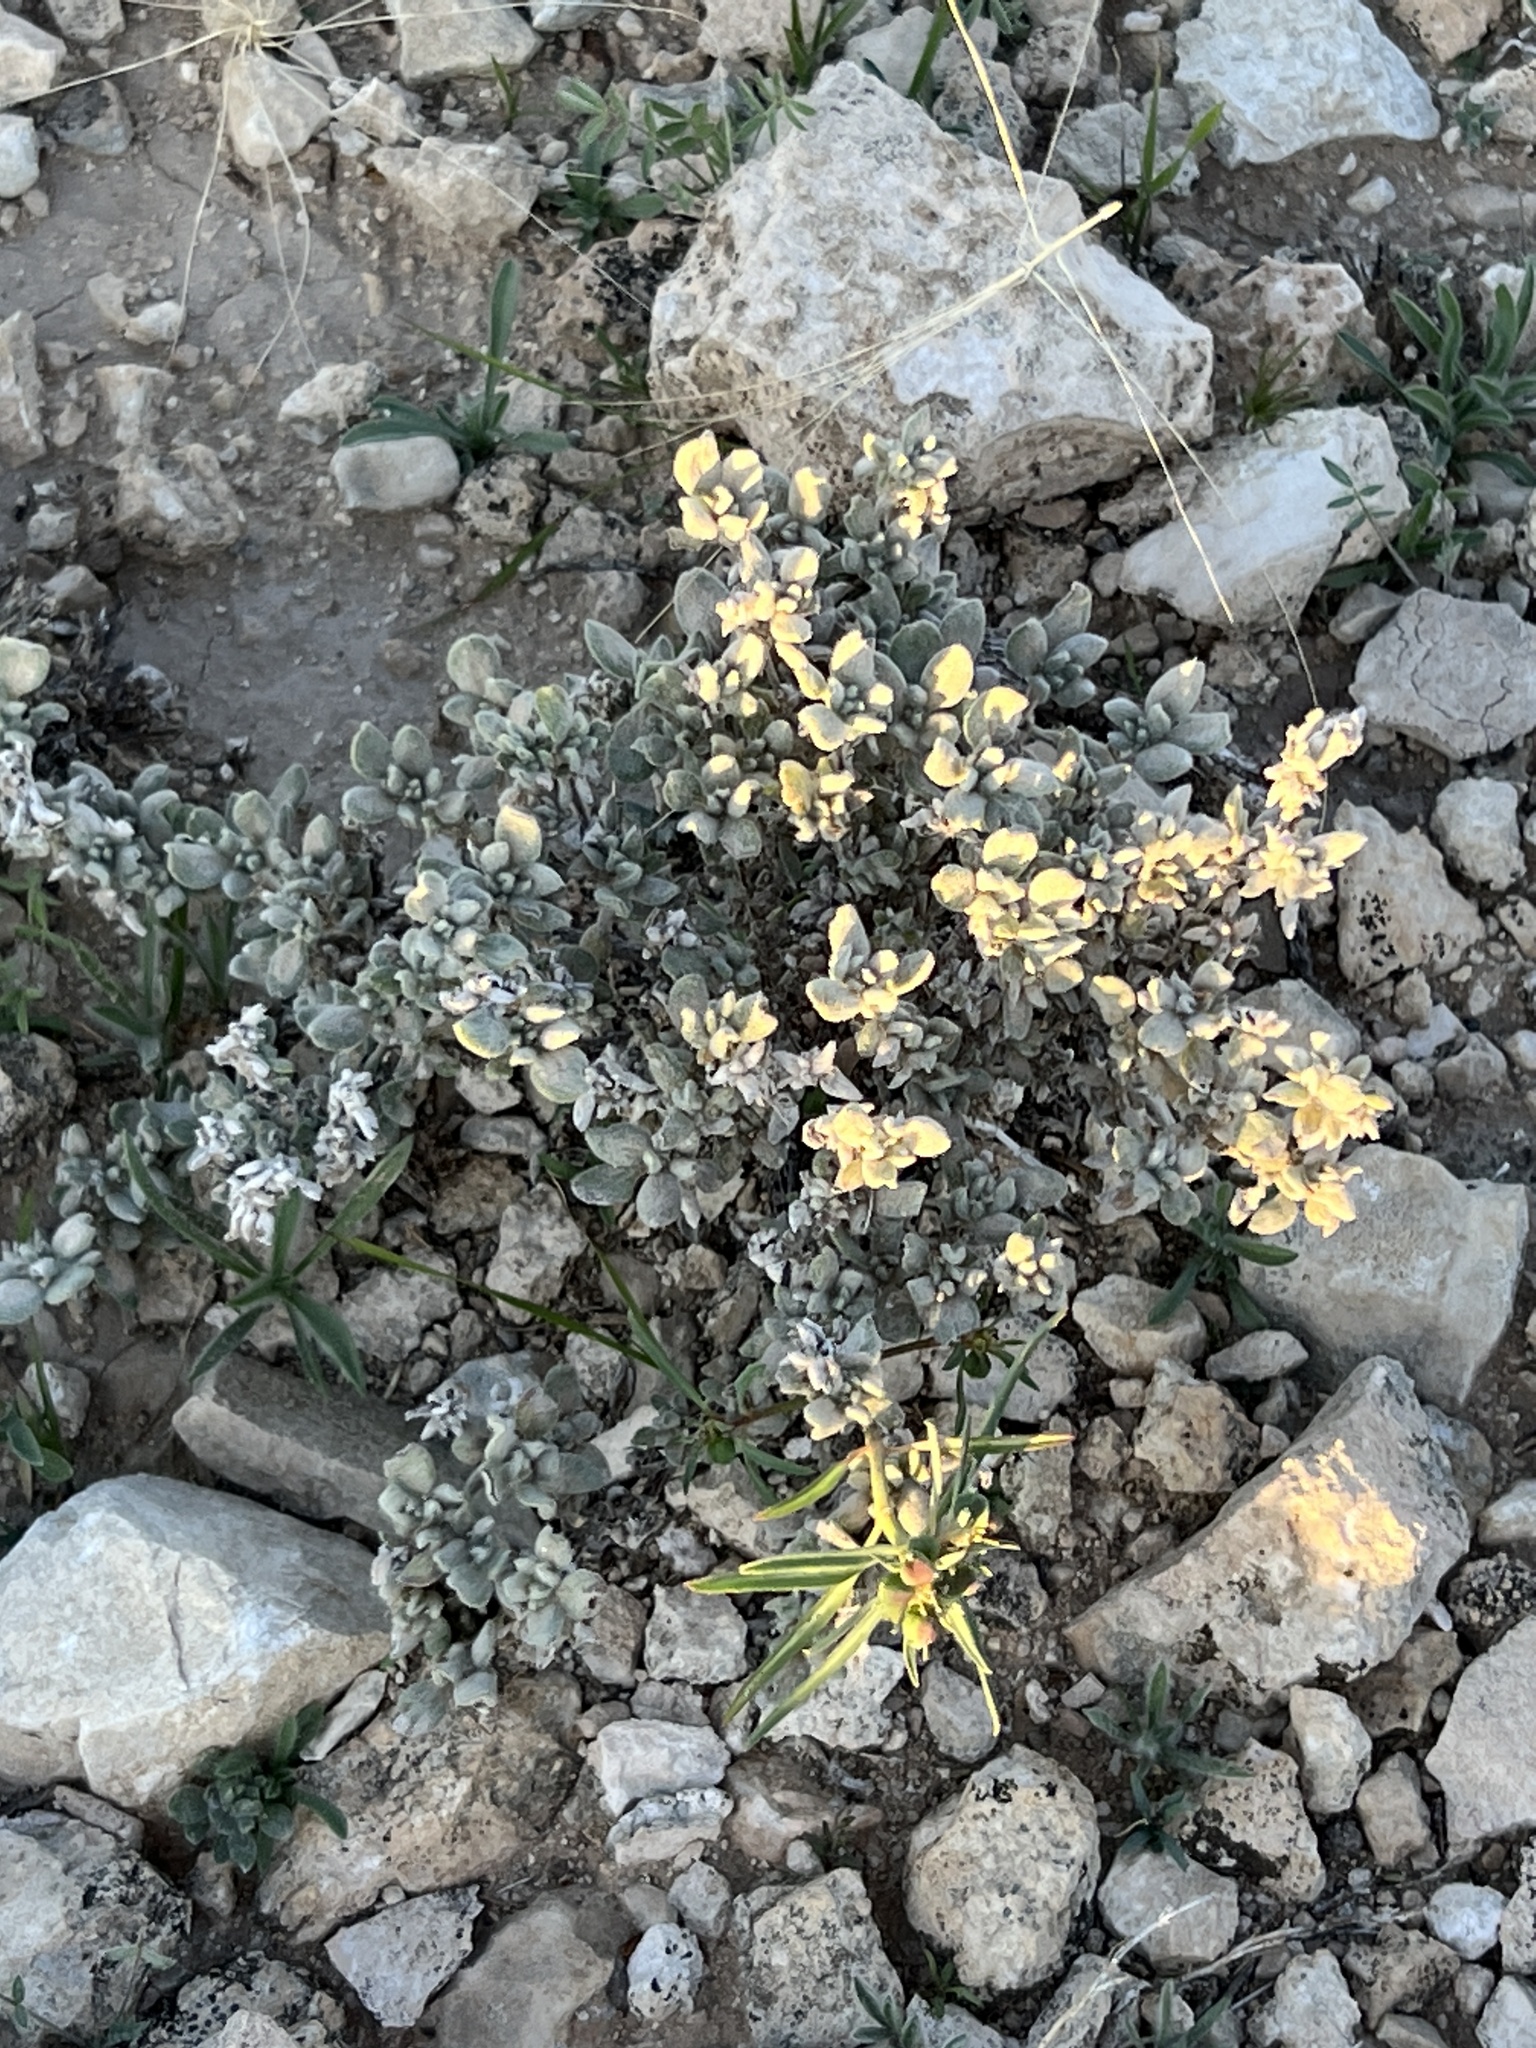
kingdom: Plantae
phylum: Tracheophyta
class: Magnoliopsida
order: Boraginales
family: Ehretiaceae
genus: Tiquilia
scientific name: Tiquilia canescens
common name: Hairy tiquilia
